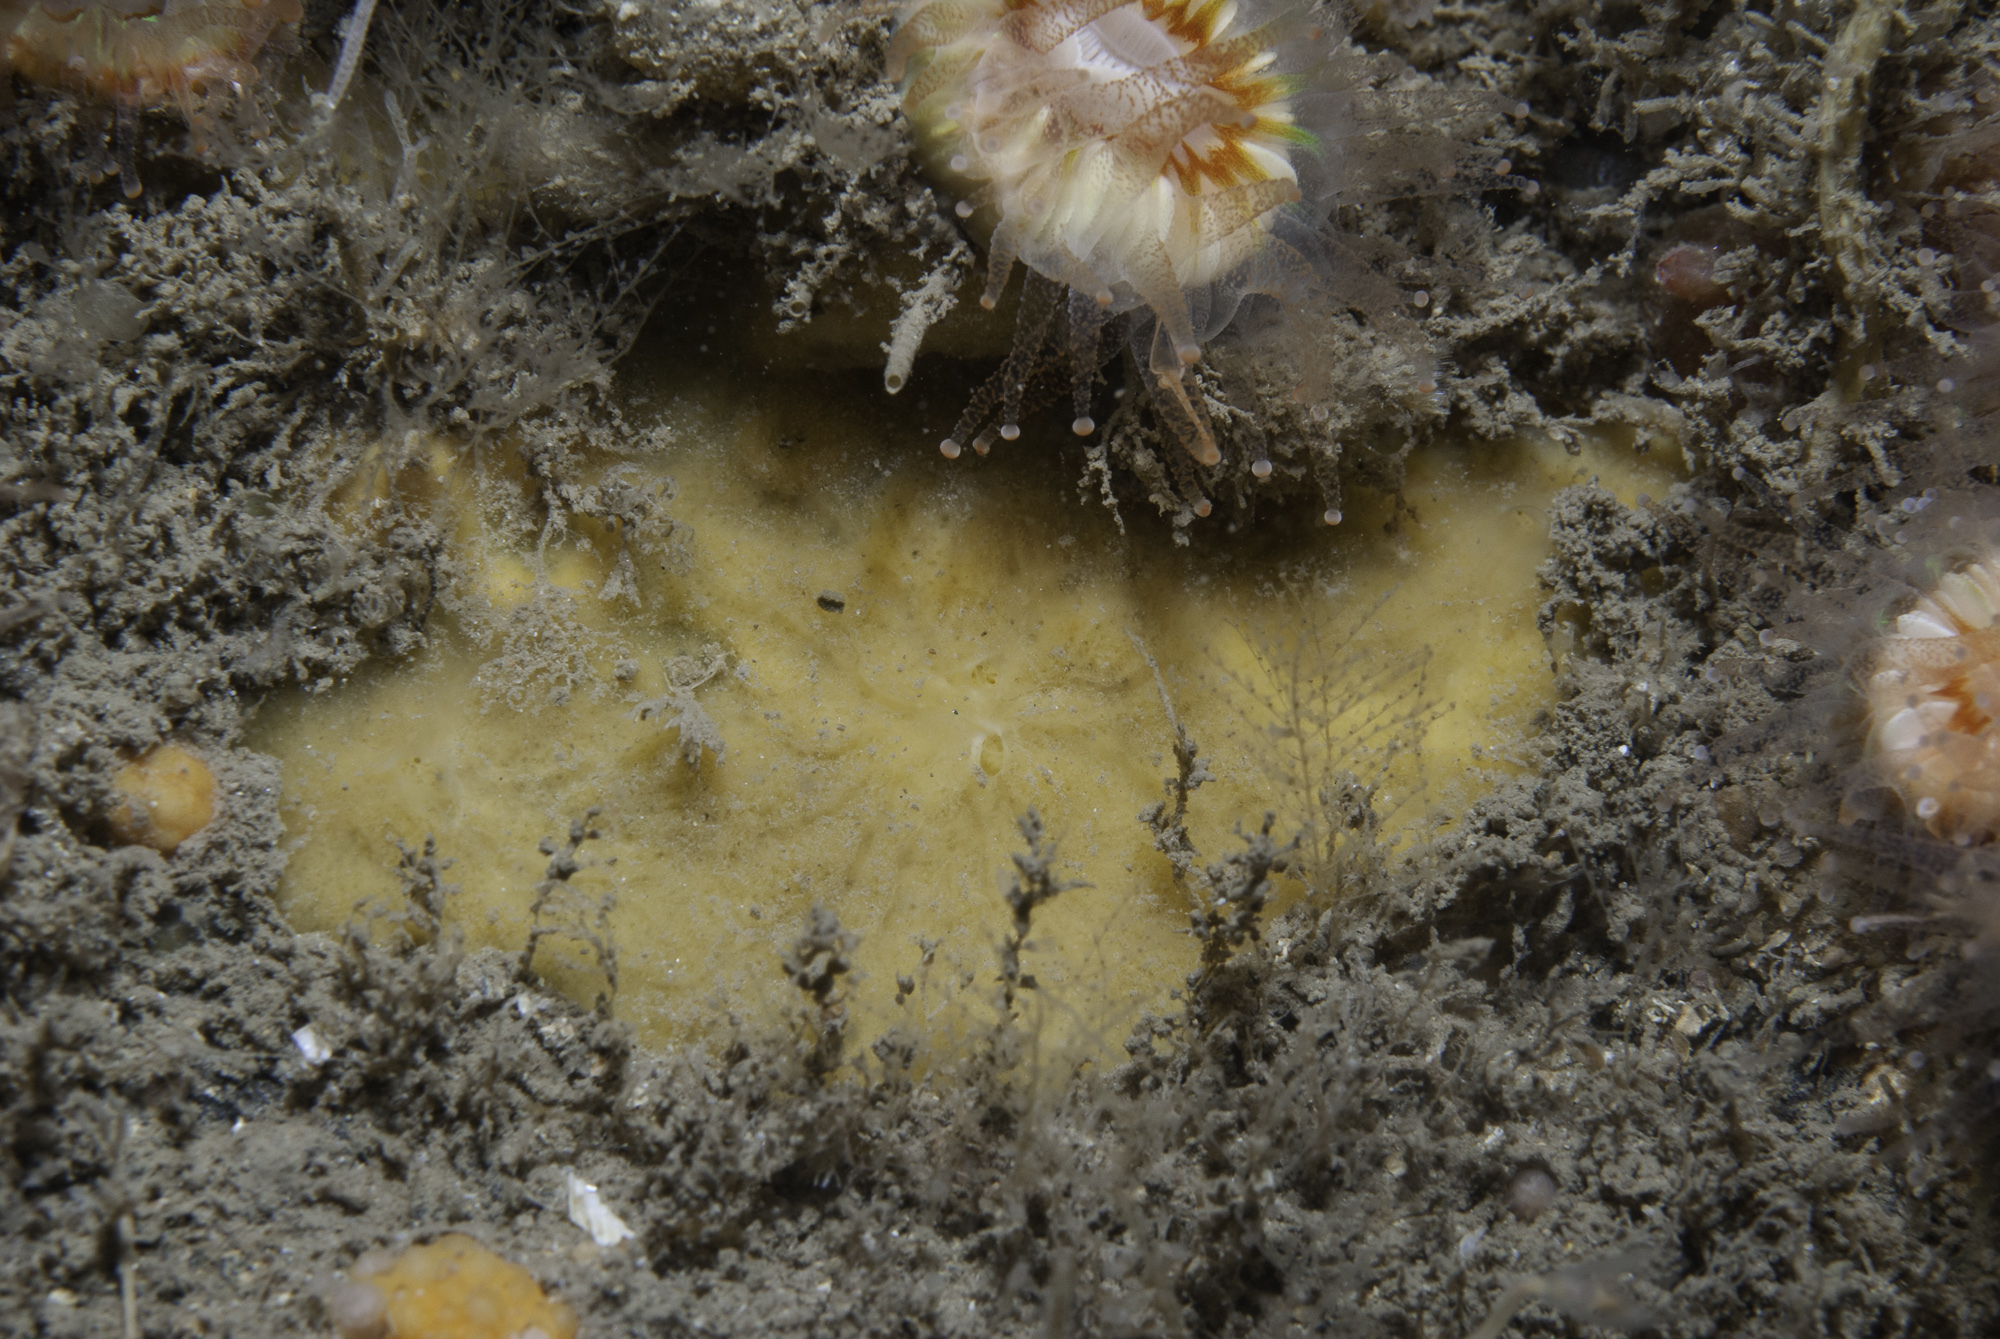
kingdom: Animalia
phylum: Porifera
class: Demospongiae
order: Poecilosclerida
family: Microcionidae
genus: Antho
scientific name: Antho brattegardi
